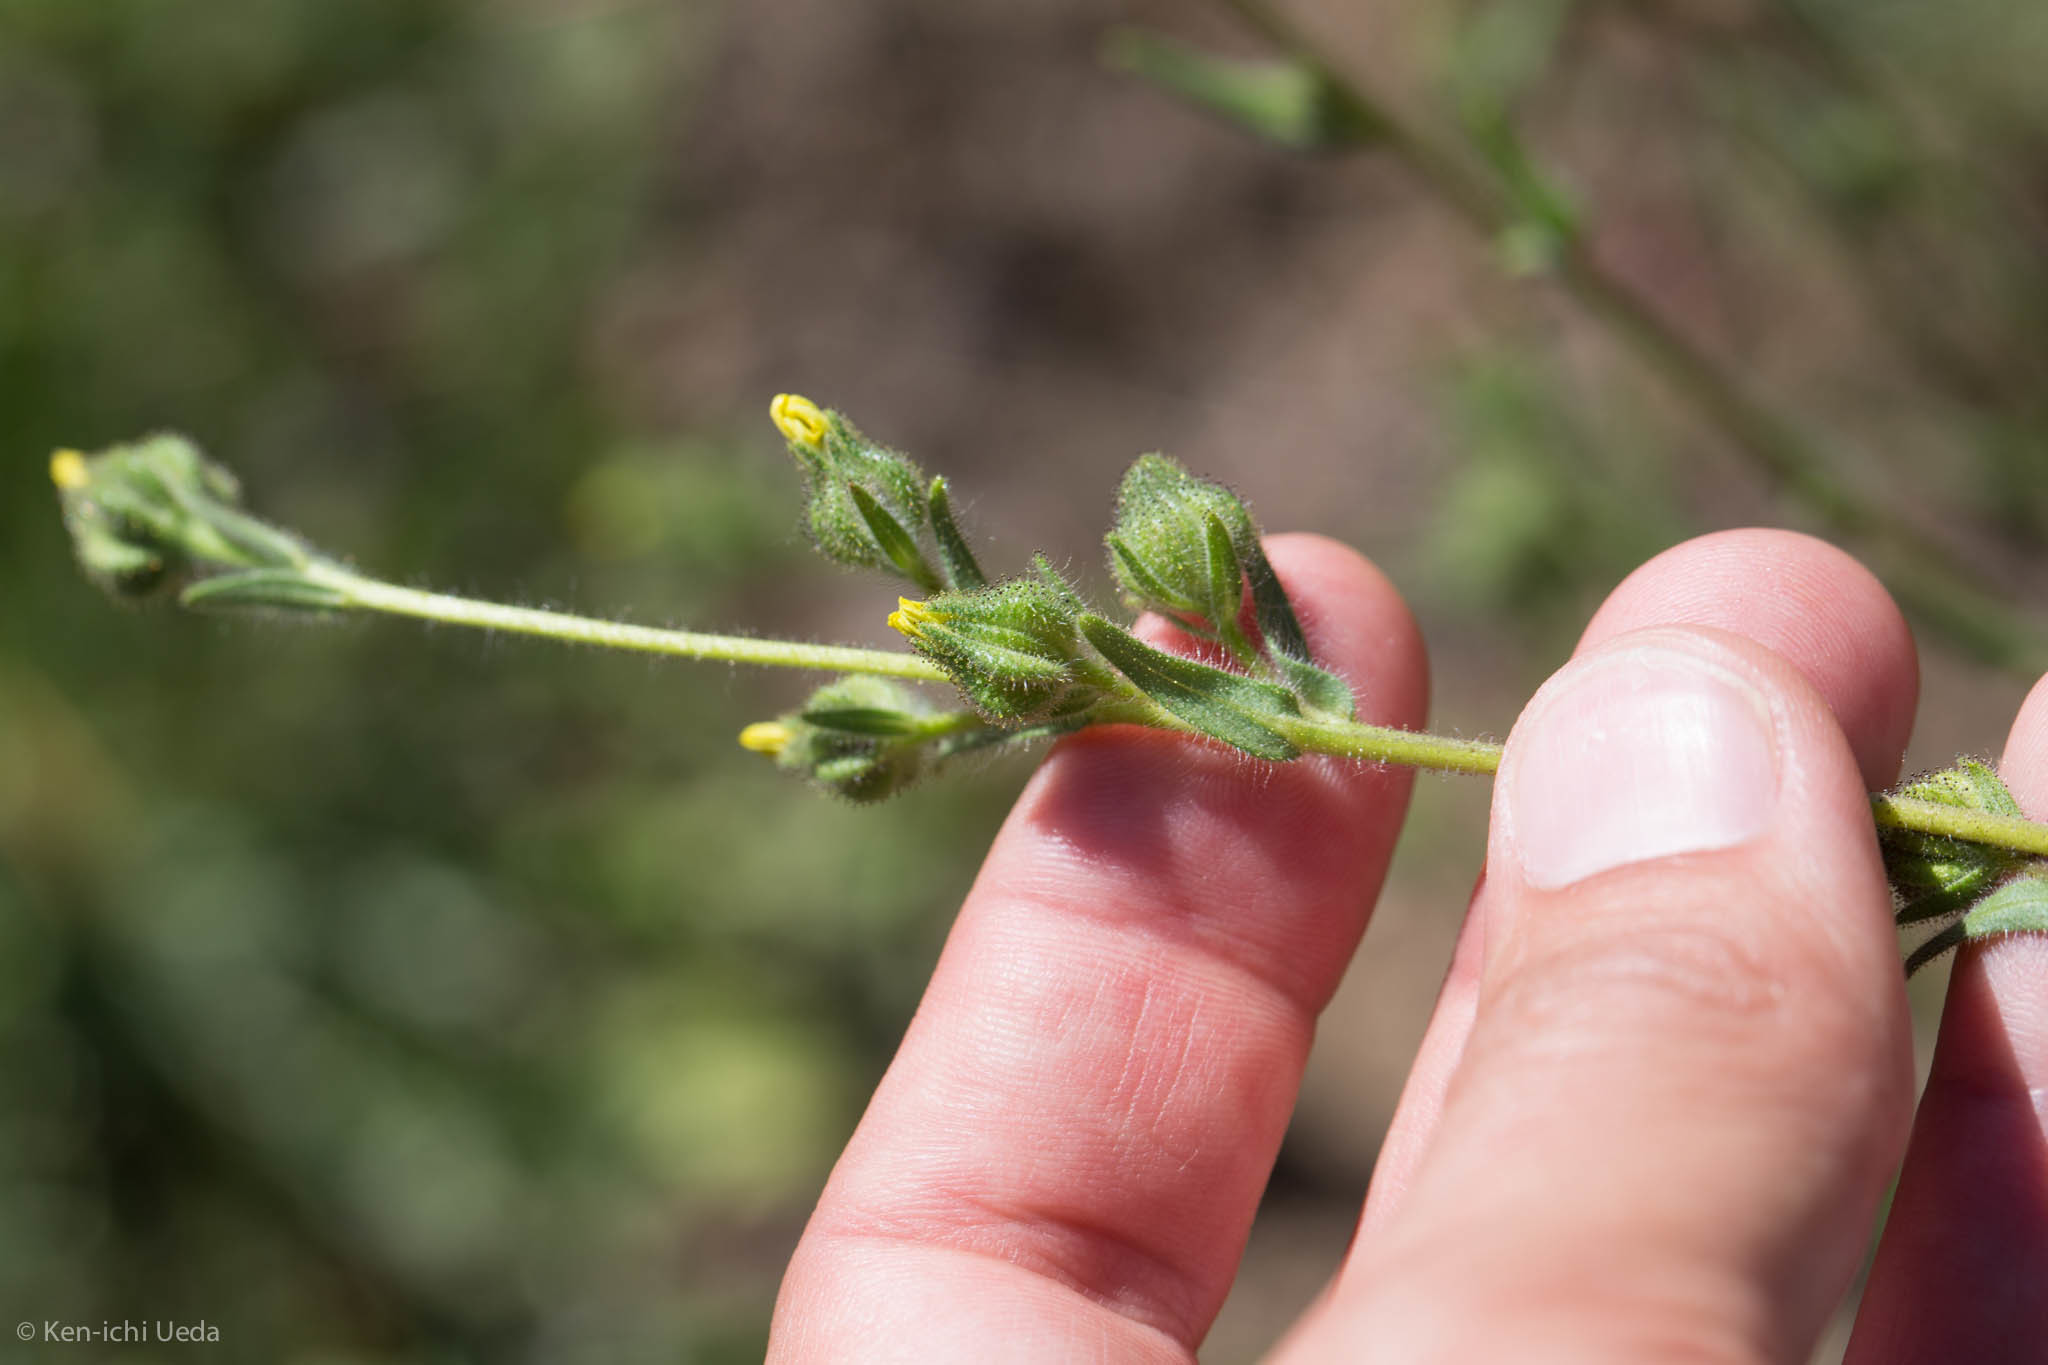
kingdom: Plantae
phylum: Tracheophyta
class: Magnoliopsida
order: Asterales
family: Asteraceae
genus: Madia
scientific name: Madia gracilis
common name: Grassy tarweed
